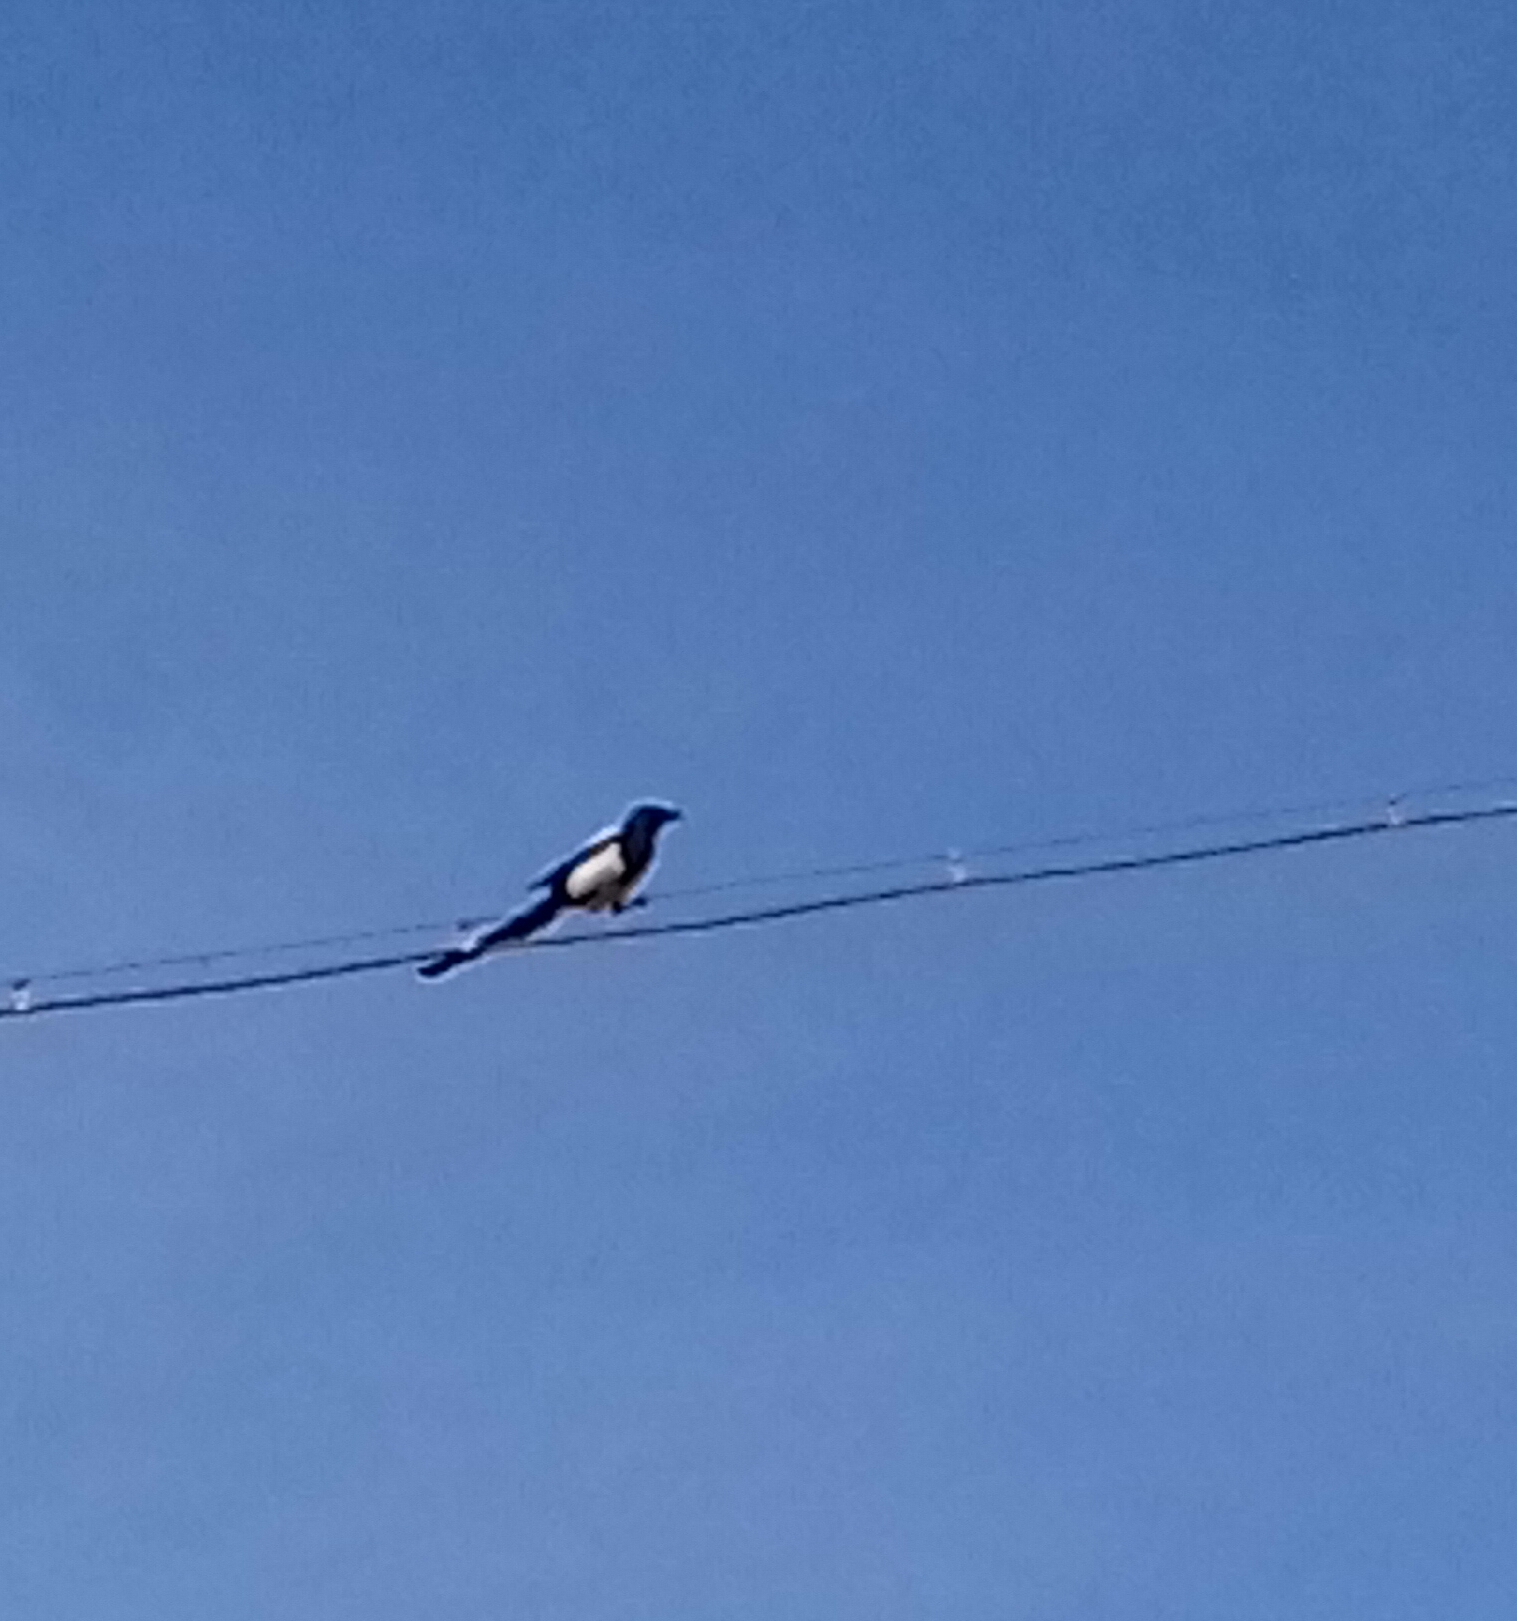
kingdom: Animalia
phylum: Chordata
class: Aves
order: Passeriformes
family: Corvidae
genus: Pica
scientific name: Pica pica
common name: Eurasian magpie
